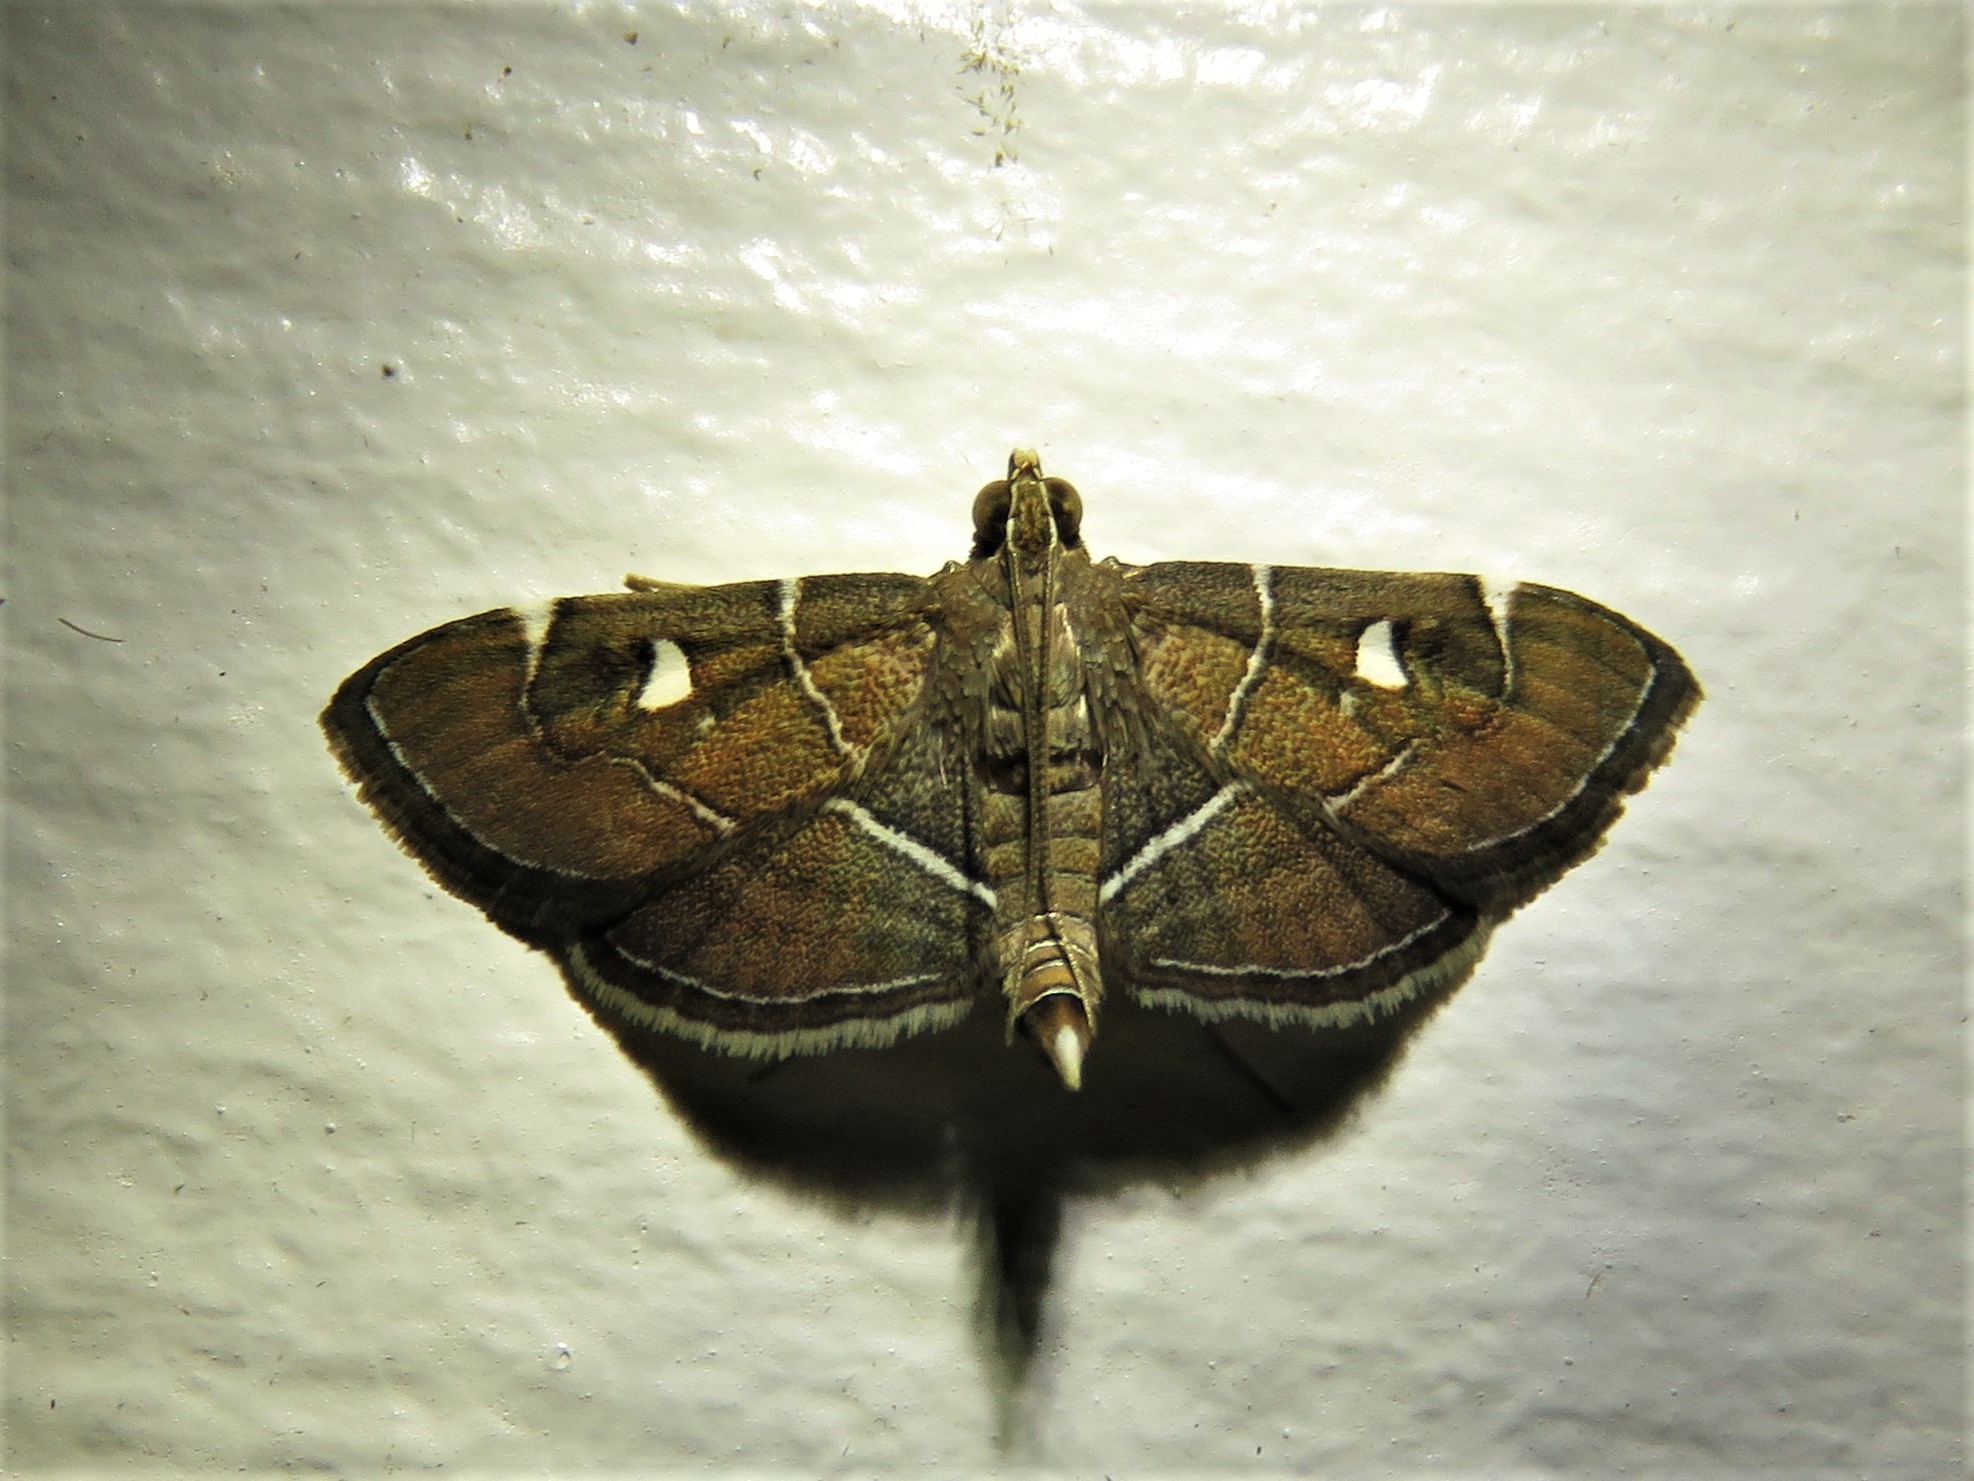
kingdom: Animalia
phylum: Arthropoda
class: Insecta
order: Lepidoptera
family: Crambidae
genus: Lamprosema
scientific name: Lamprosema victoriae
